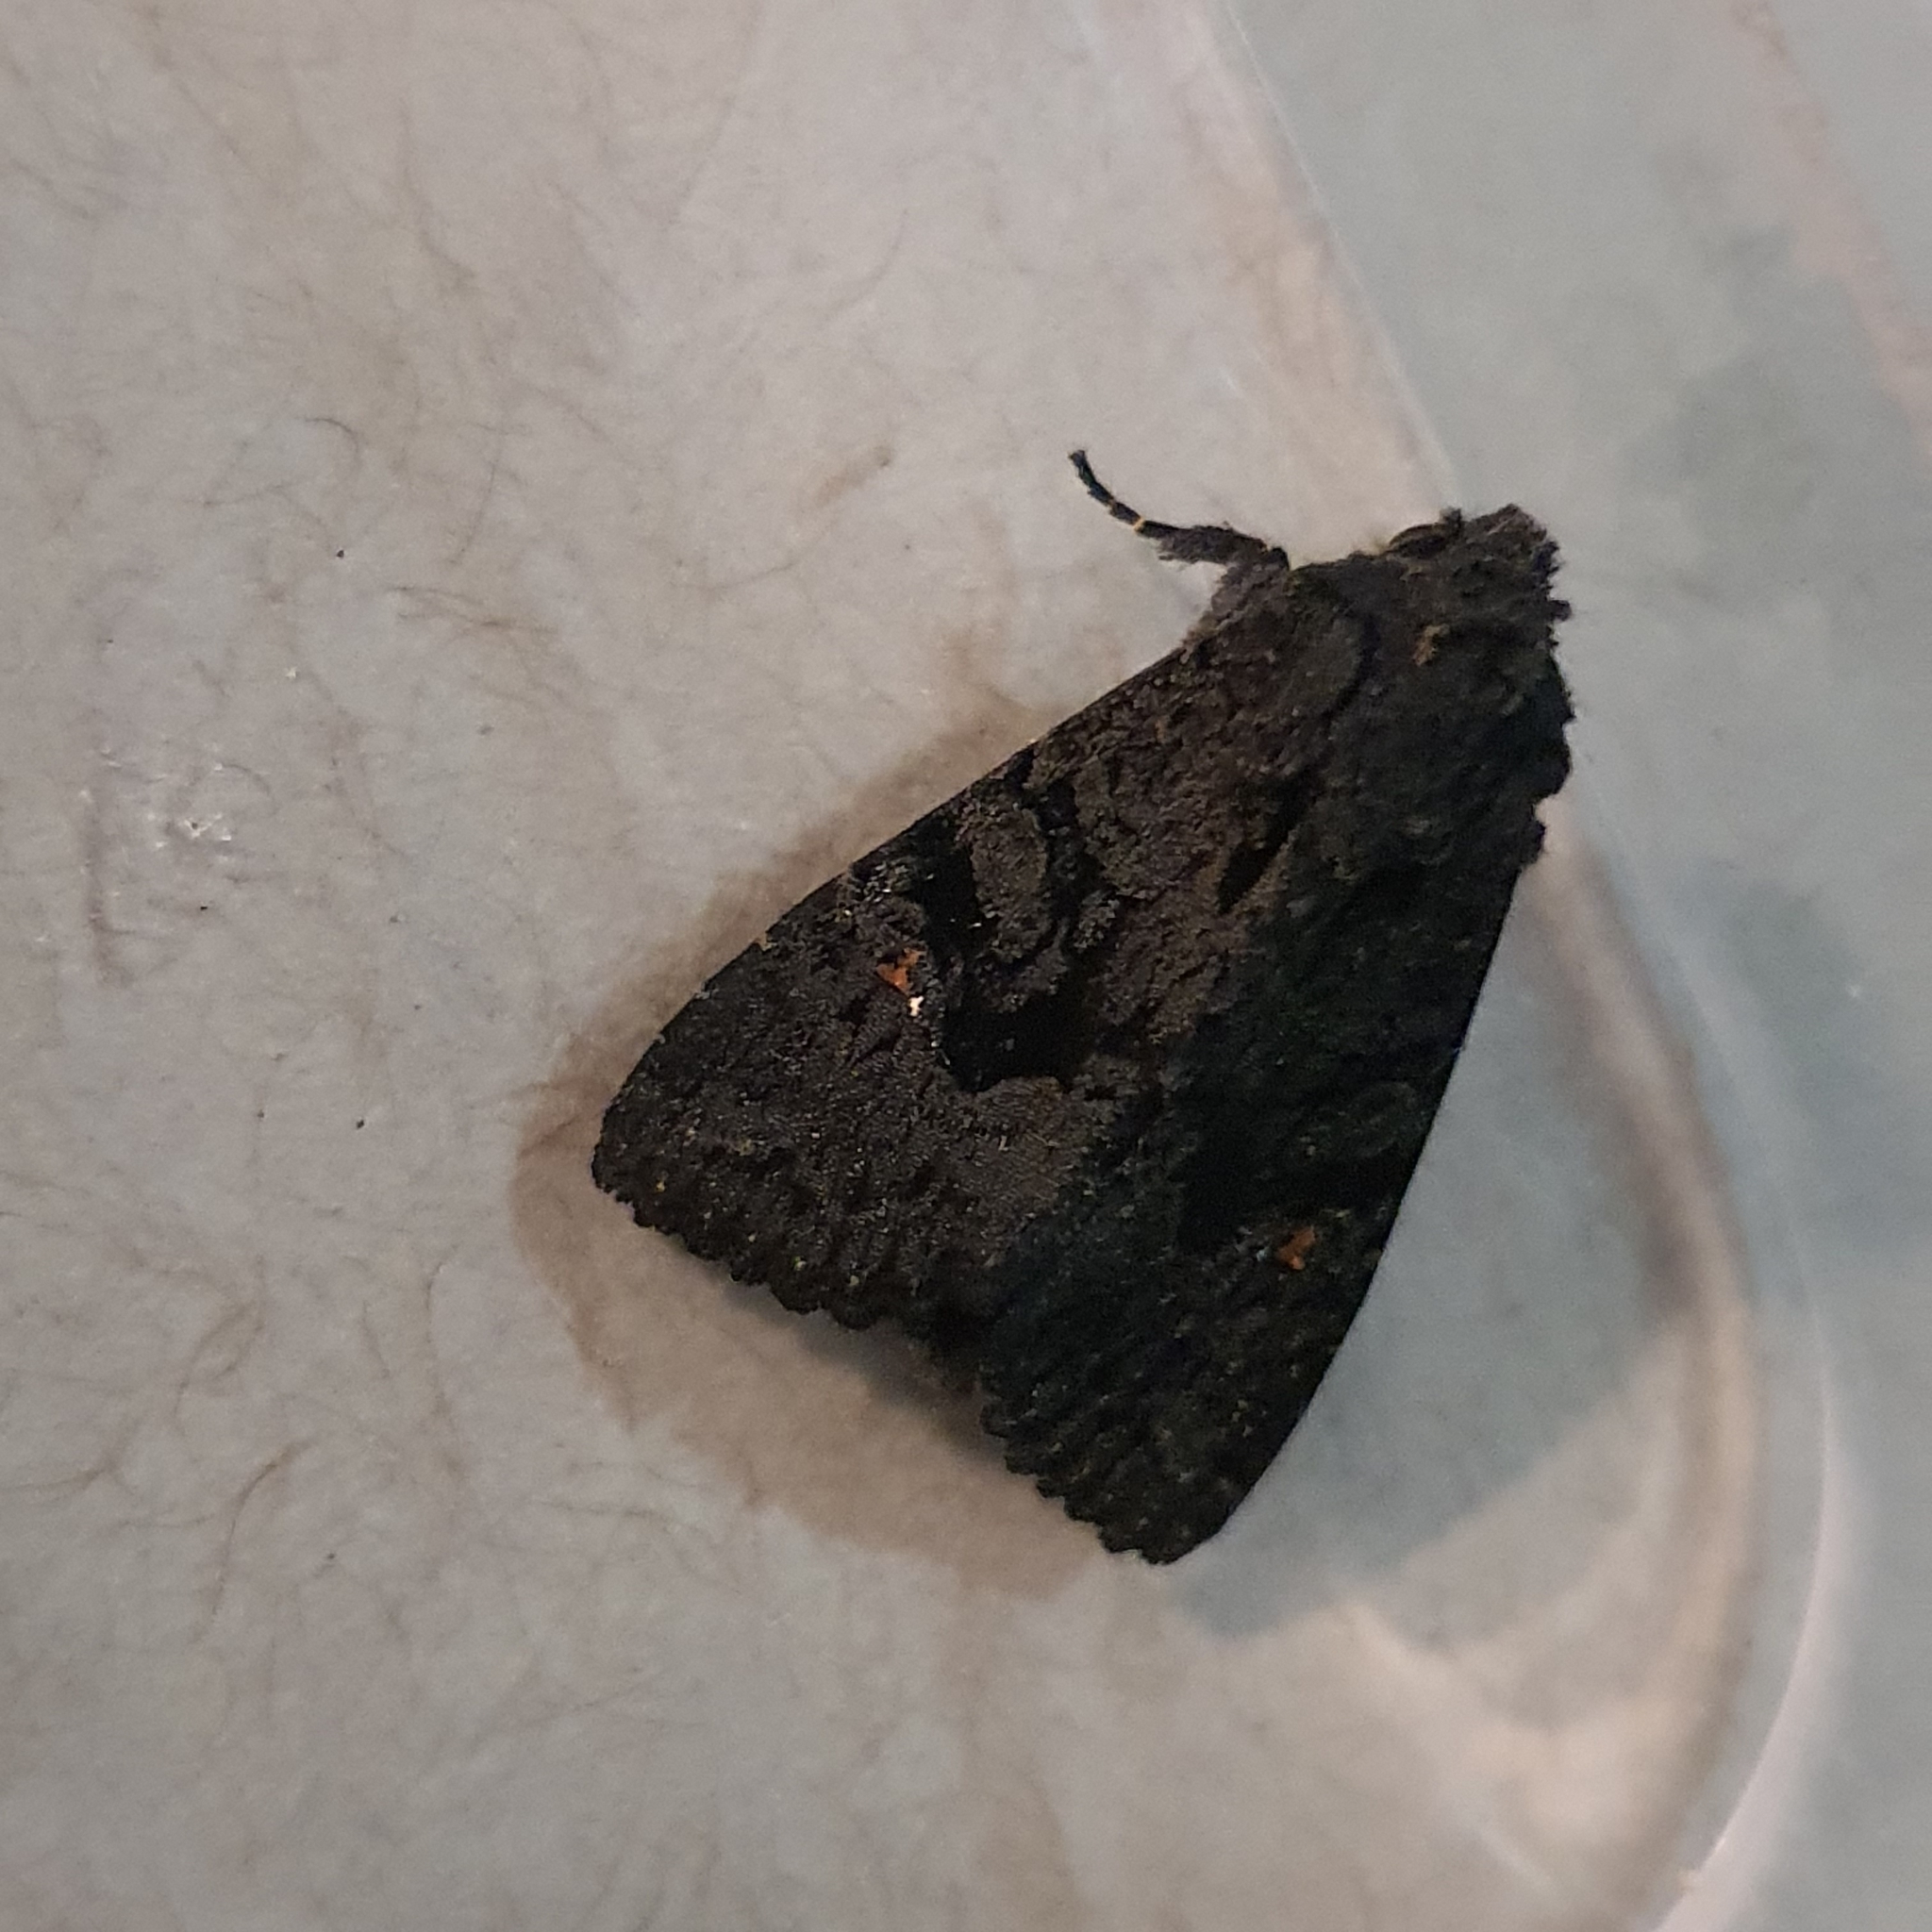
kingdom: Animalia
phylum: Arthropoda
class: Insecta
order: Lepidoptera
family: Noctuidae
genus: Neumichtis
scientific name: Neumichtis nigerrima
